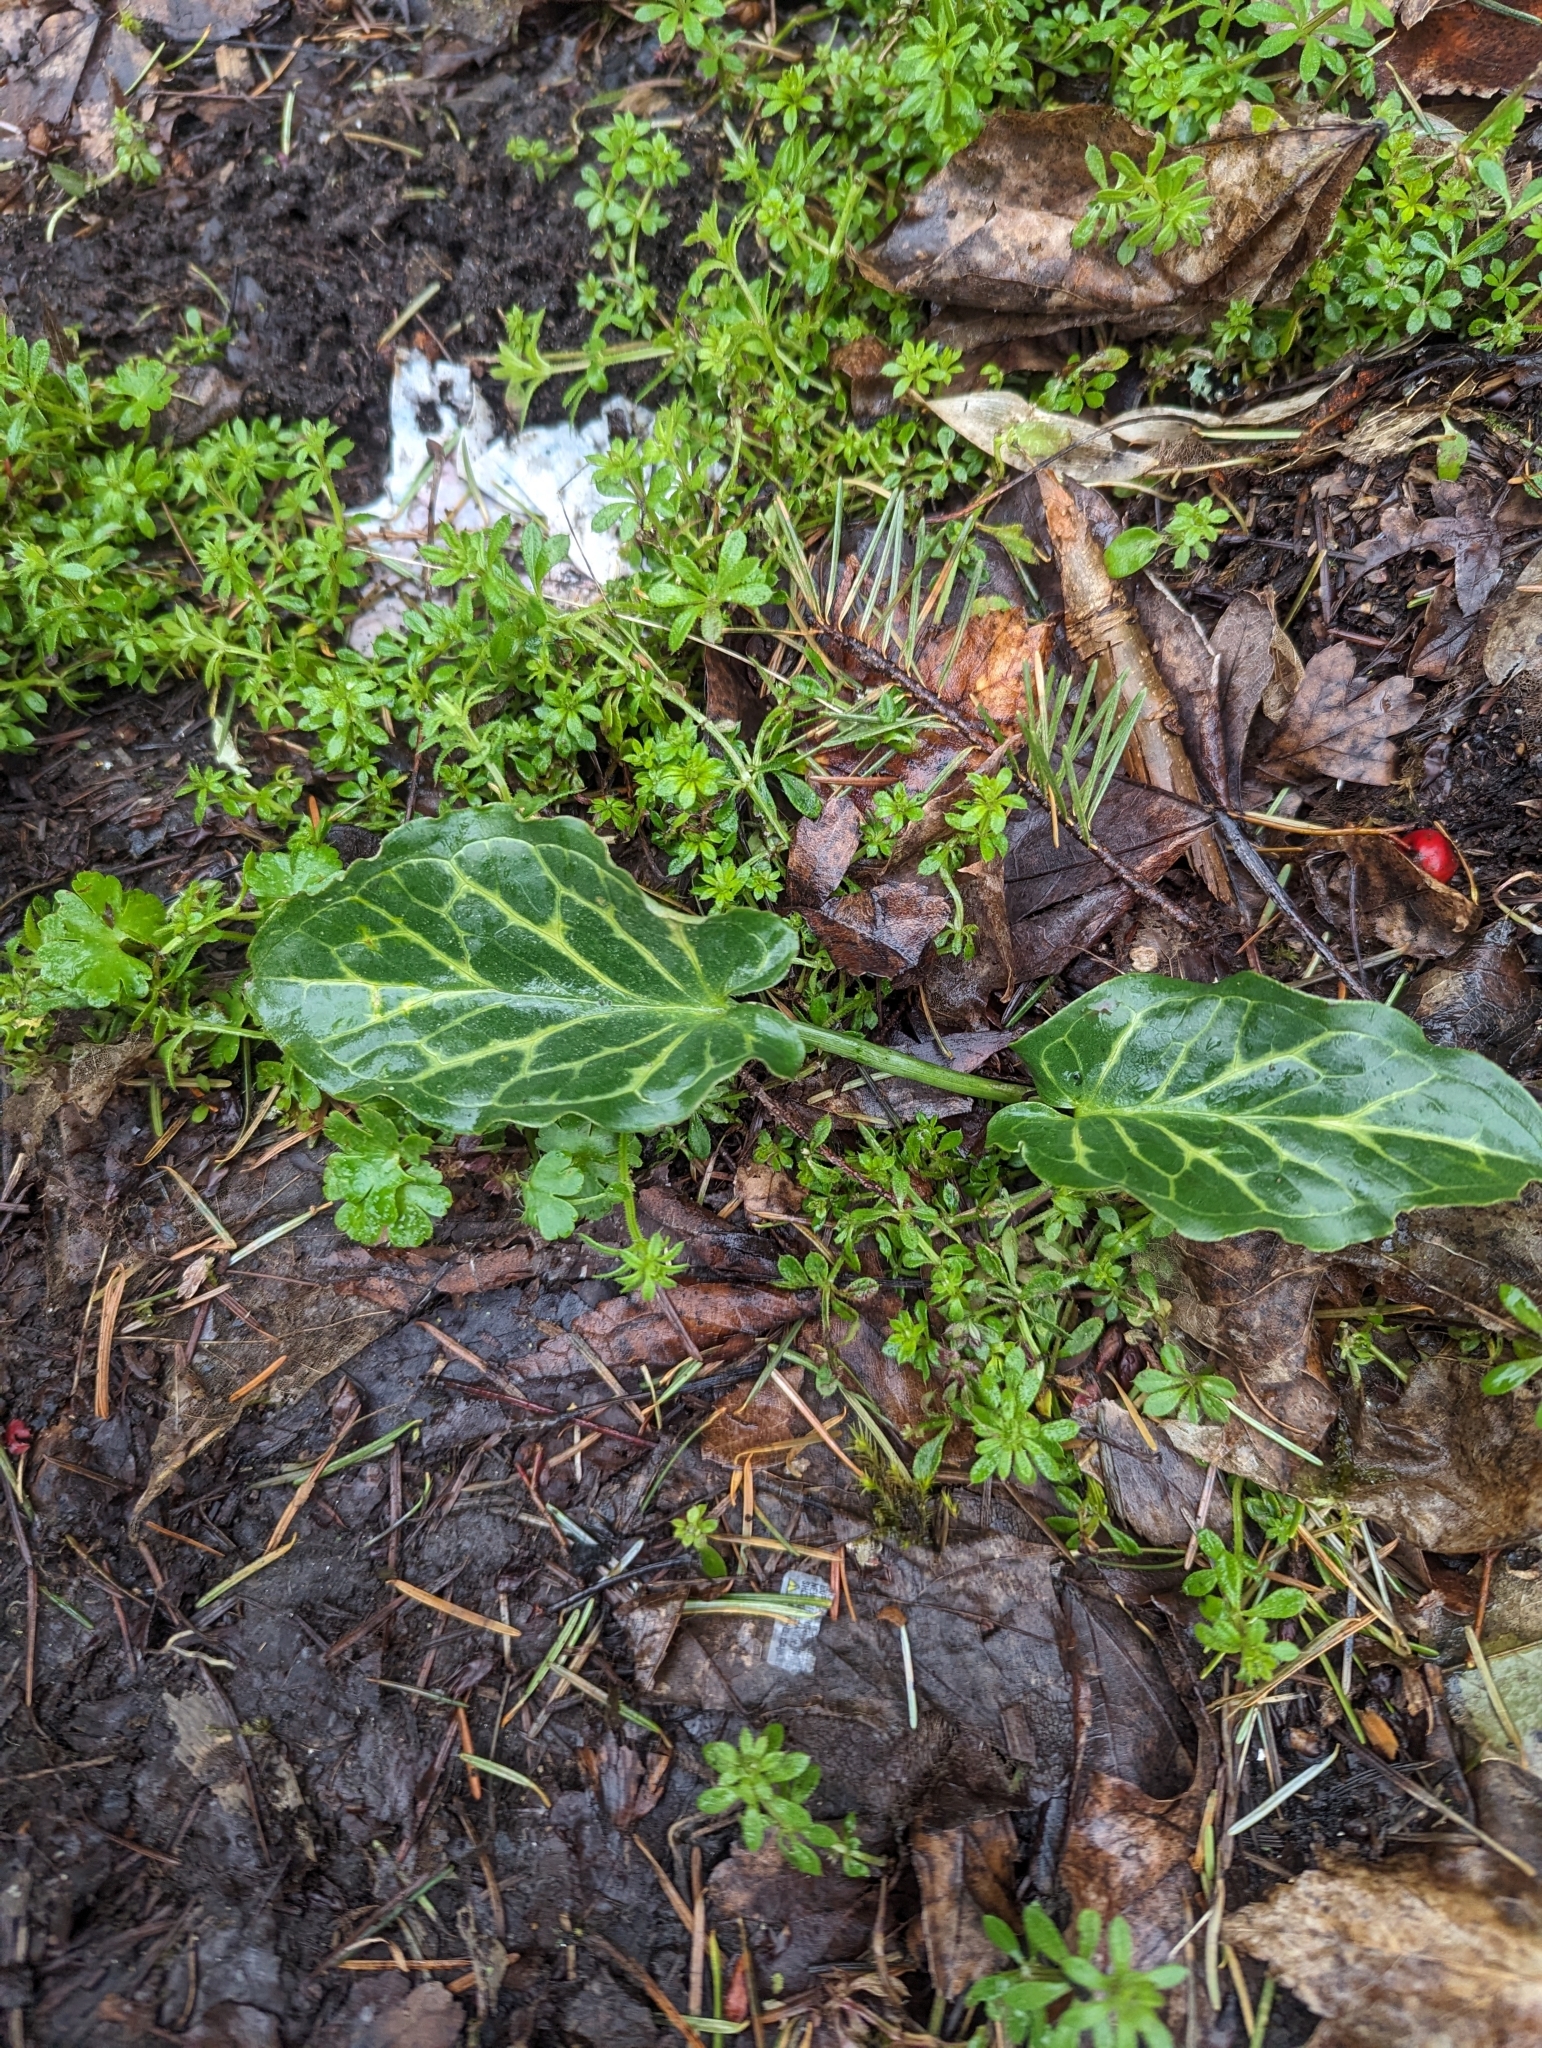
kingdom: Plantae
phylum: Tracheophyta
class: Liliopsida
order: Alismatales
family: Araceae
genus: Arum
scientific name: Arum italicum
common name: Italian lords-and-ladies
